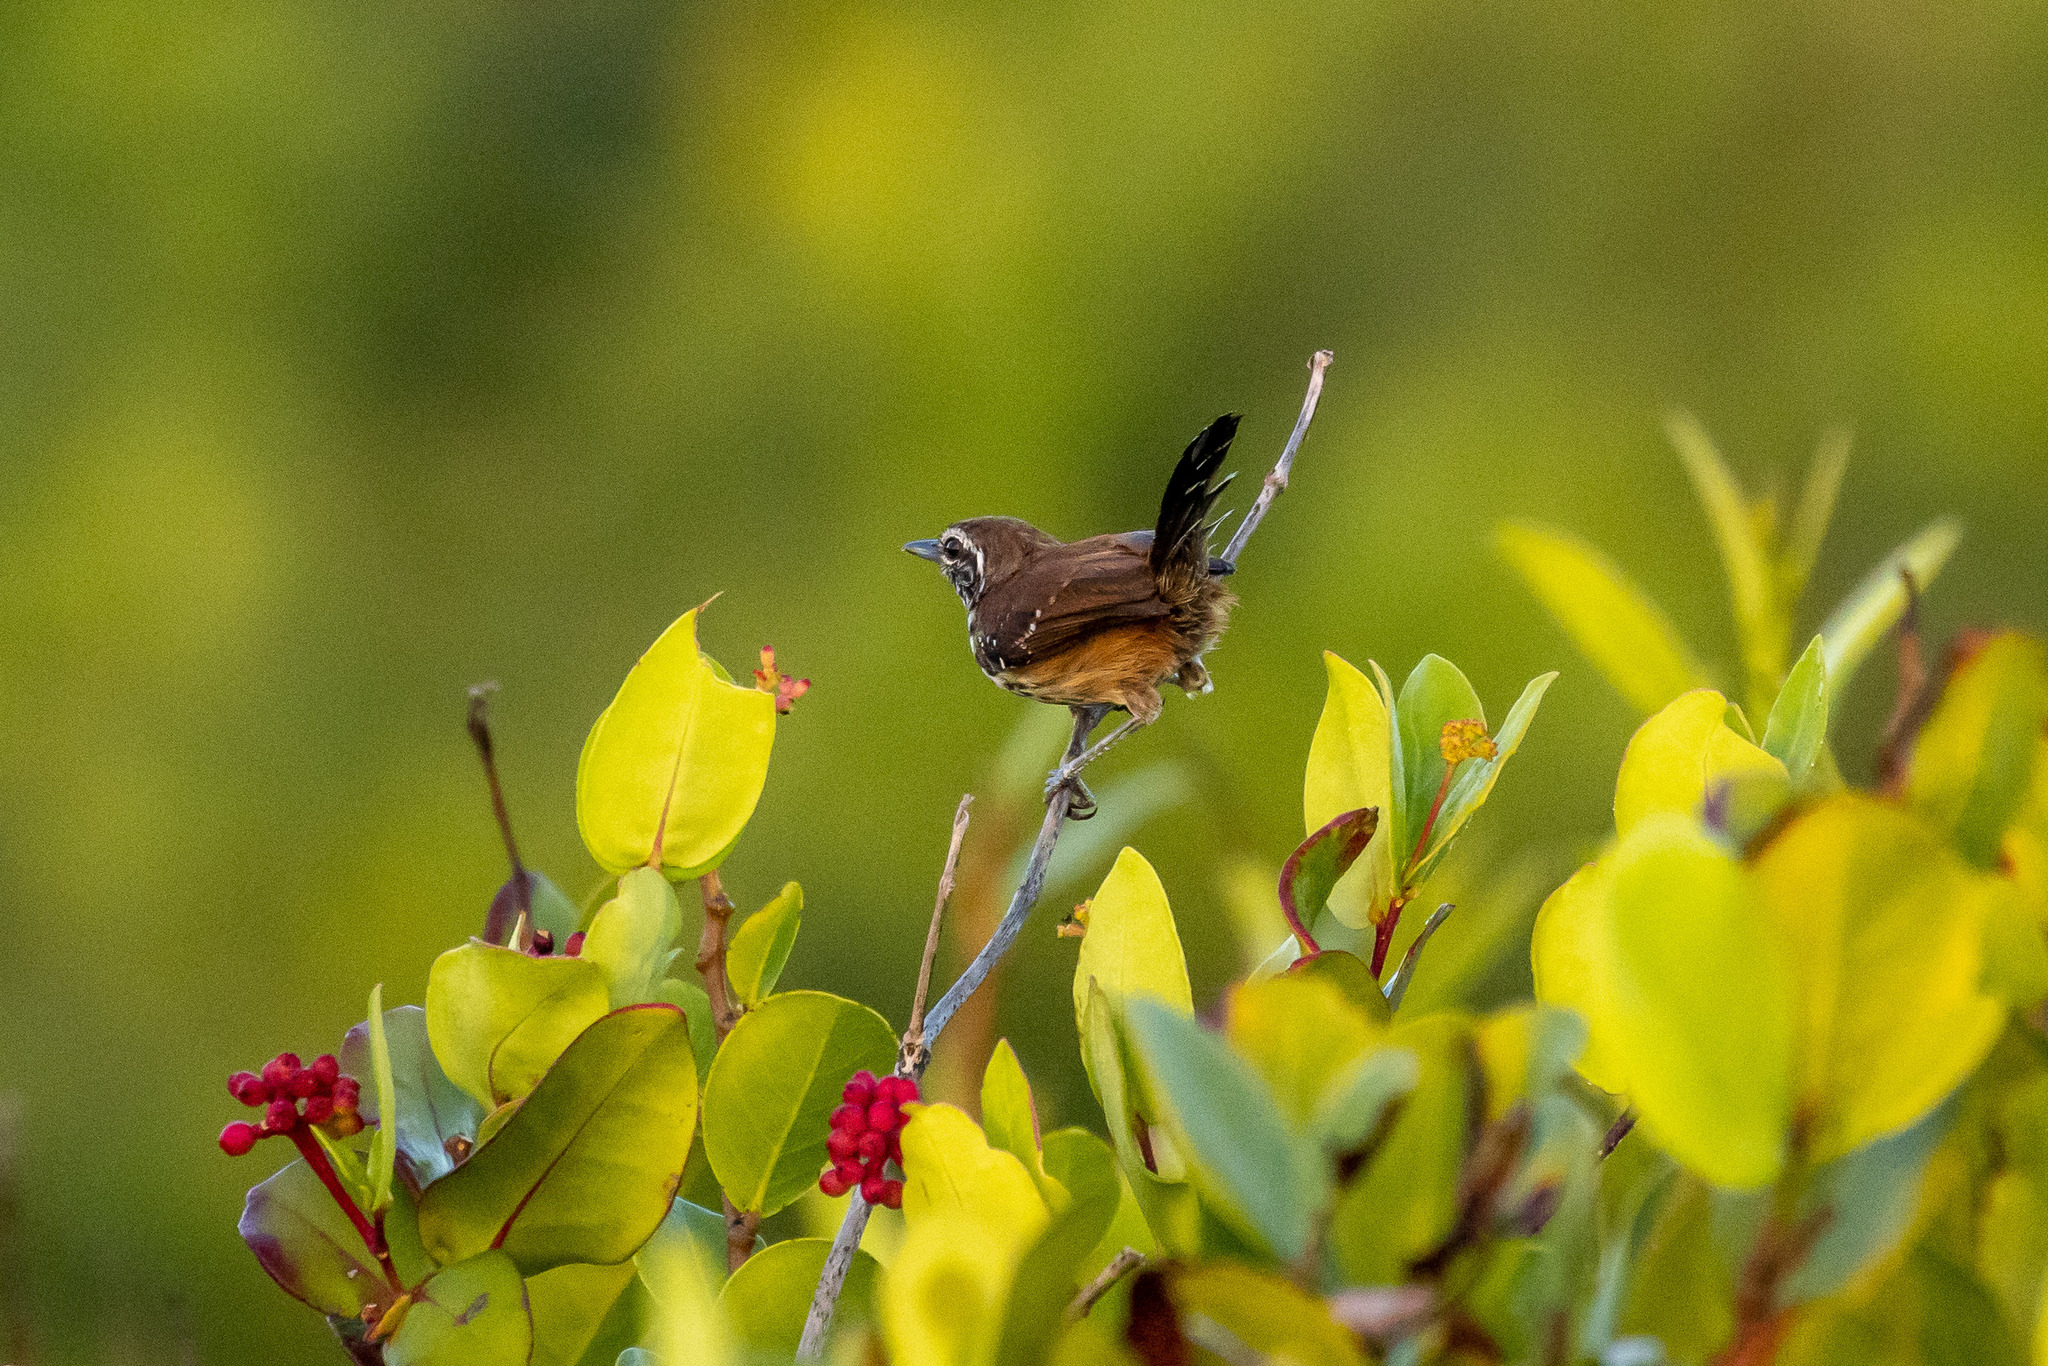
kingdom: Animalia
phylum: Chordata
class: Aves
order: Passeriformes
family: Thamnophilidae
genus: Formicivora
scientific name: Formicivora rufa
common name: Rusty-backed antwren
